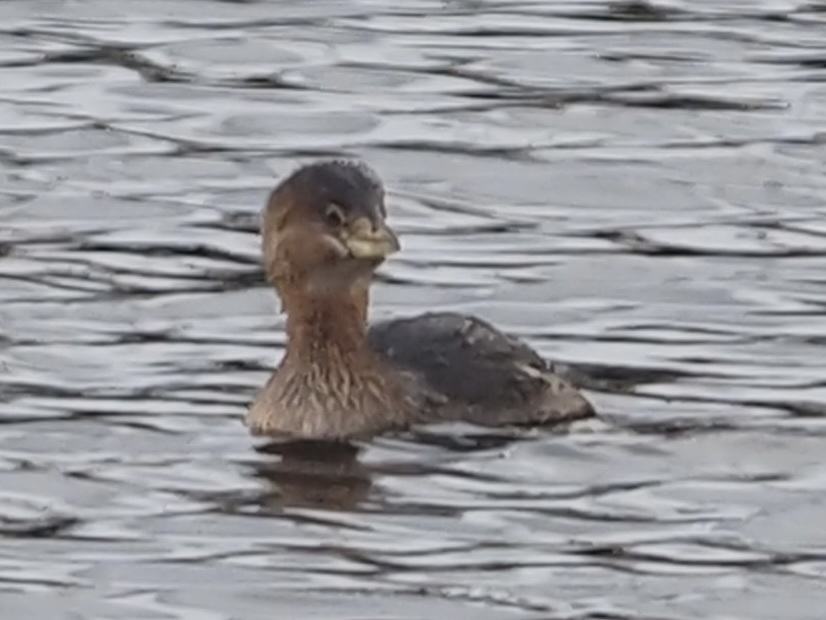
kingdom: Animalia
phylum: Chordata
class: Aves
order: Podicipediformes
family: Podicipedidae
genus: Podilymbus
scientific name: Podilymbus podiceps
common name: Pied-billed grebe
